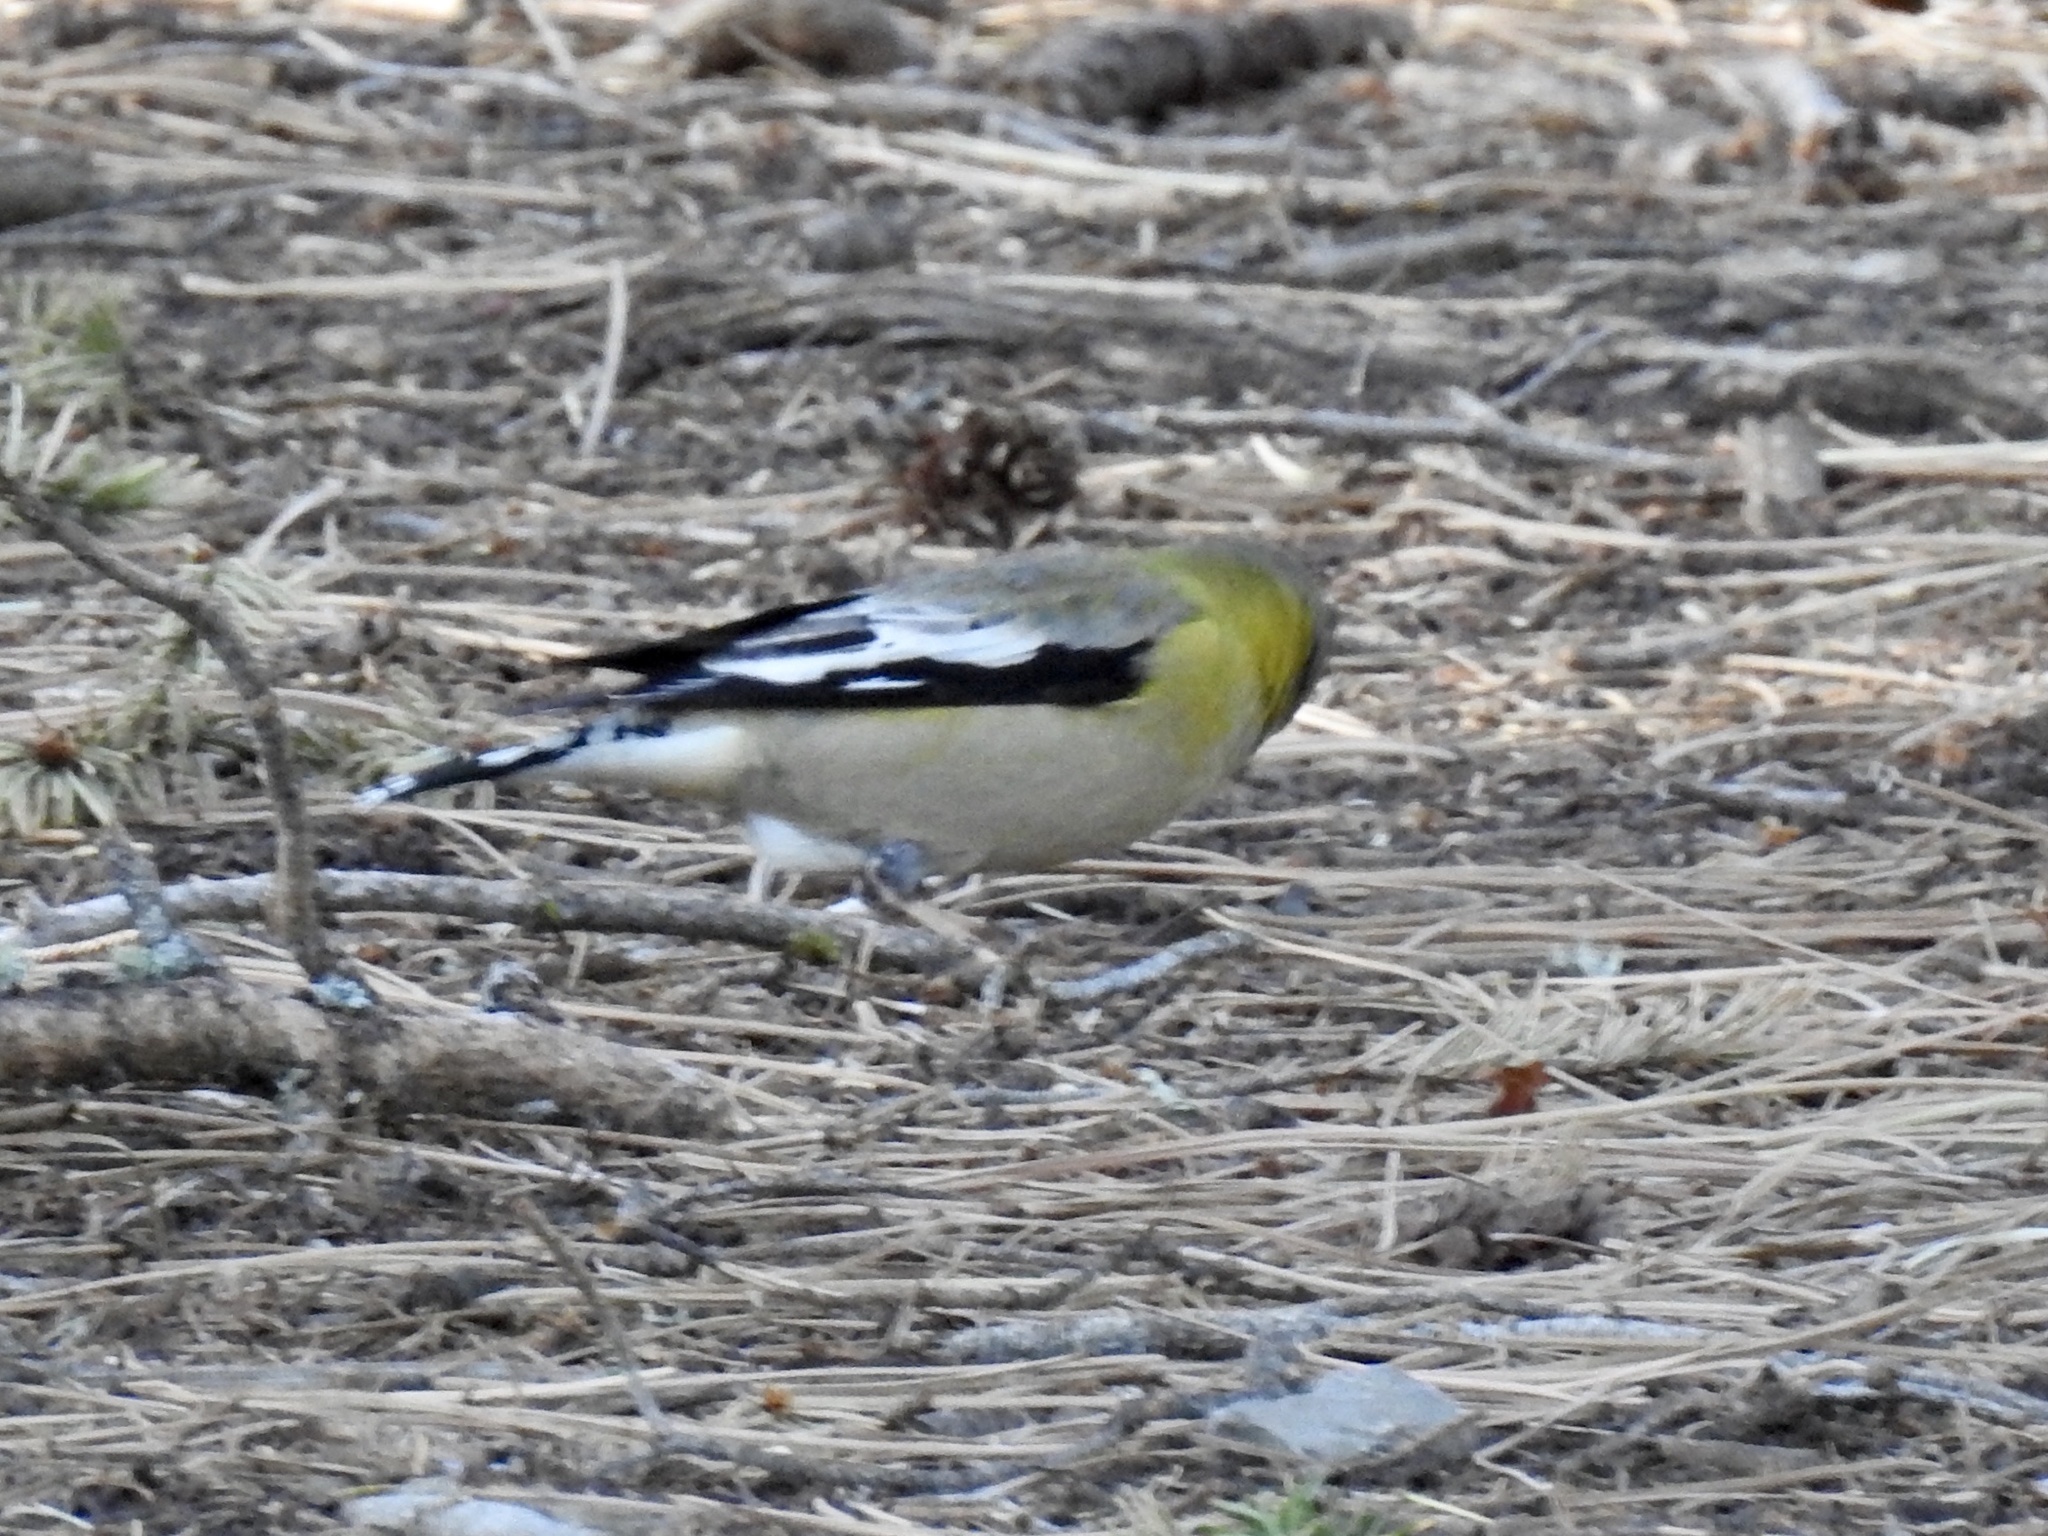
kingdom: Animalia
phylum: Chordata
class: Aves
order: Passeriformes
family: Fringillidae
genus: Hesperiphona
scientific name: Hesperiphona vespertina
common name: Evening grosbeak
